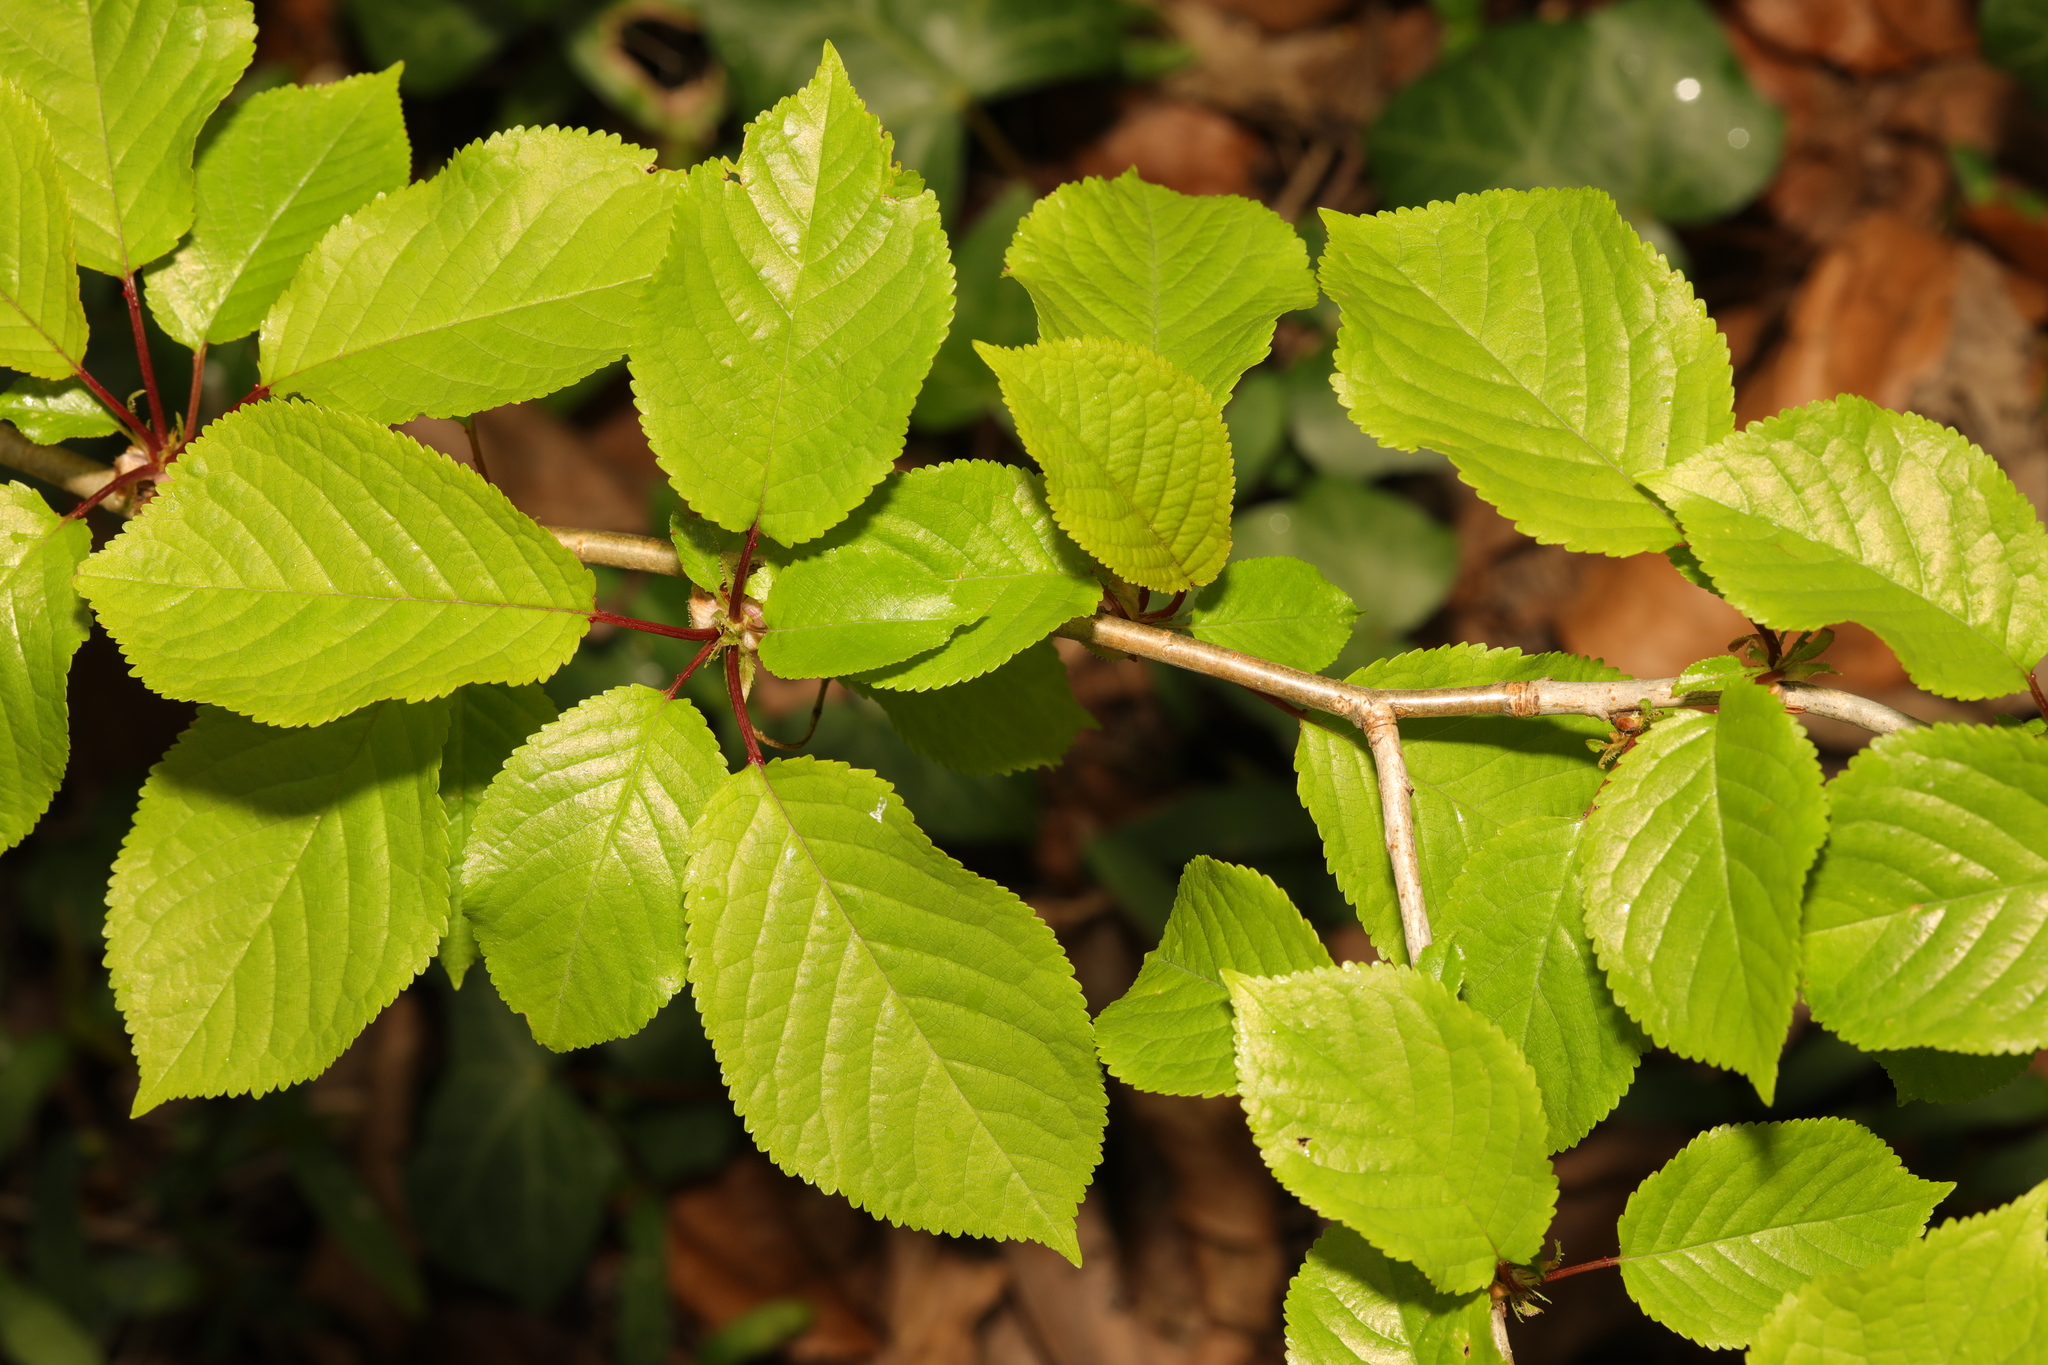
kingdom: Plantae
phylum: Tracheophyta
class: Magnoliopsida
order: Rosales
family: Rosaceae
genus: Prunus
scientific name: Prunus avium
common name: Sweet cherry
